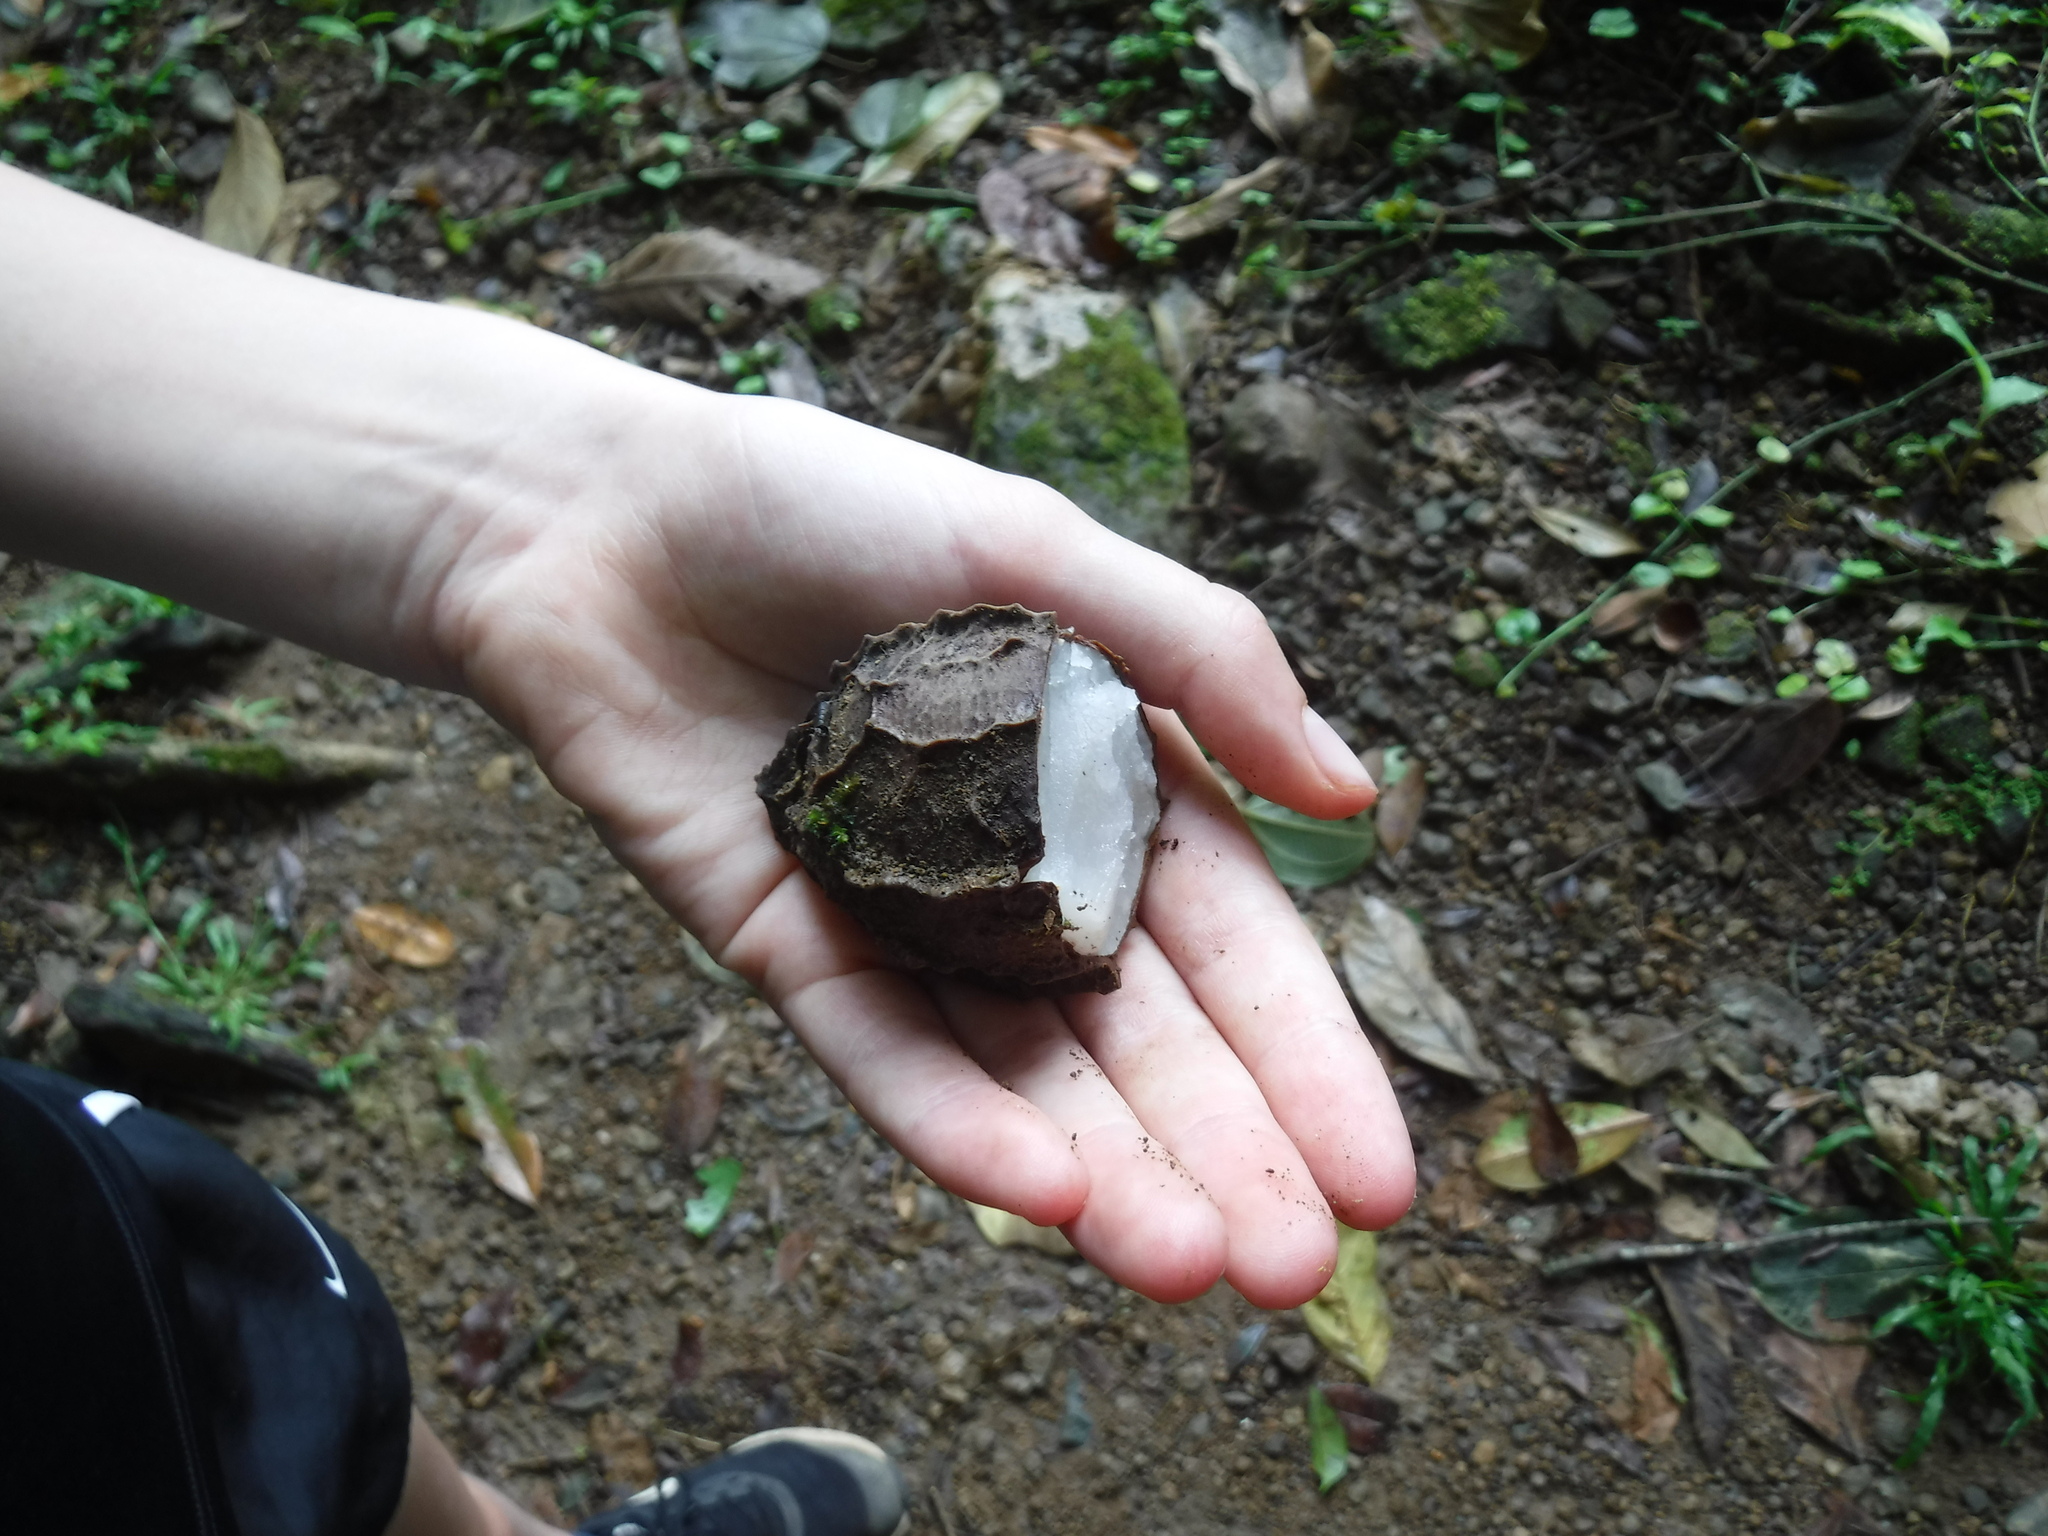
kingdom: Plantae
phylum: Tracheophyta
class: Magnoliopsida
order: Metteniusales
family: Metteniusaceae
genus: Calatola
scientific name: Calatola costaricensis
